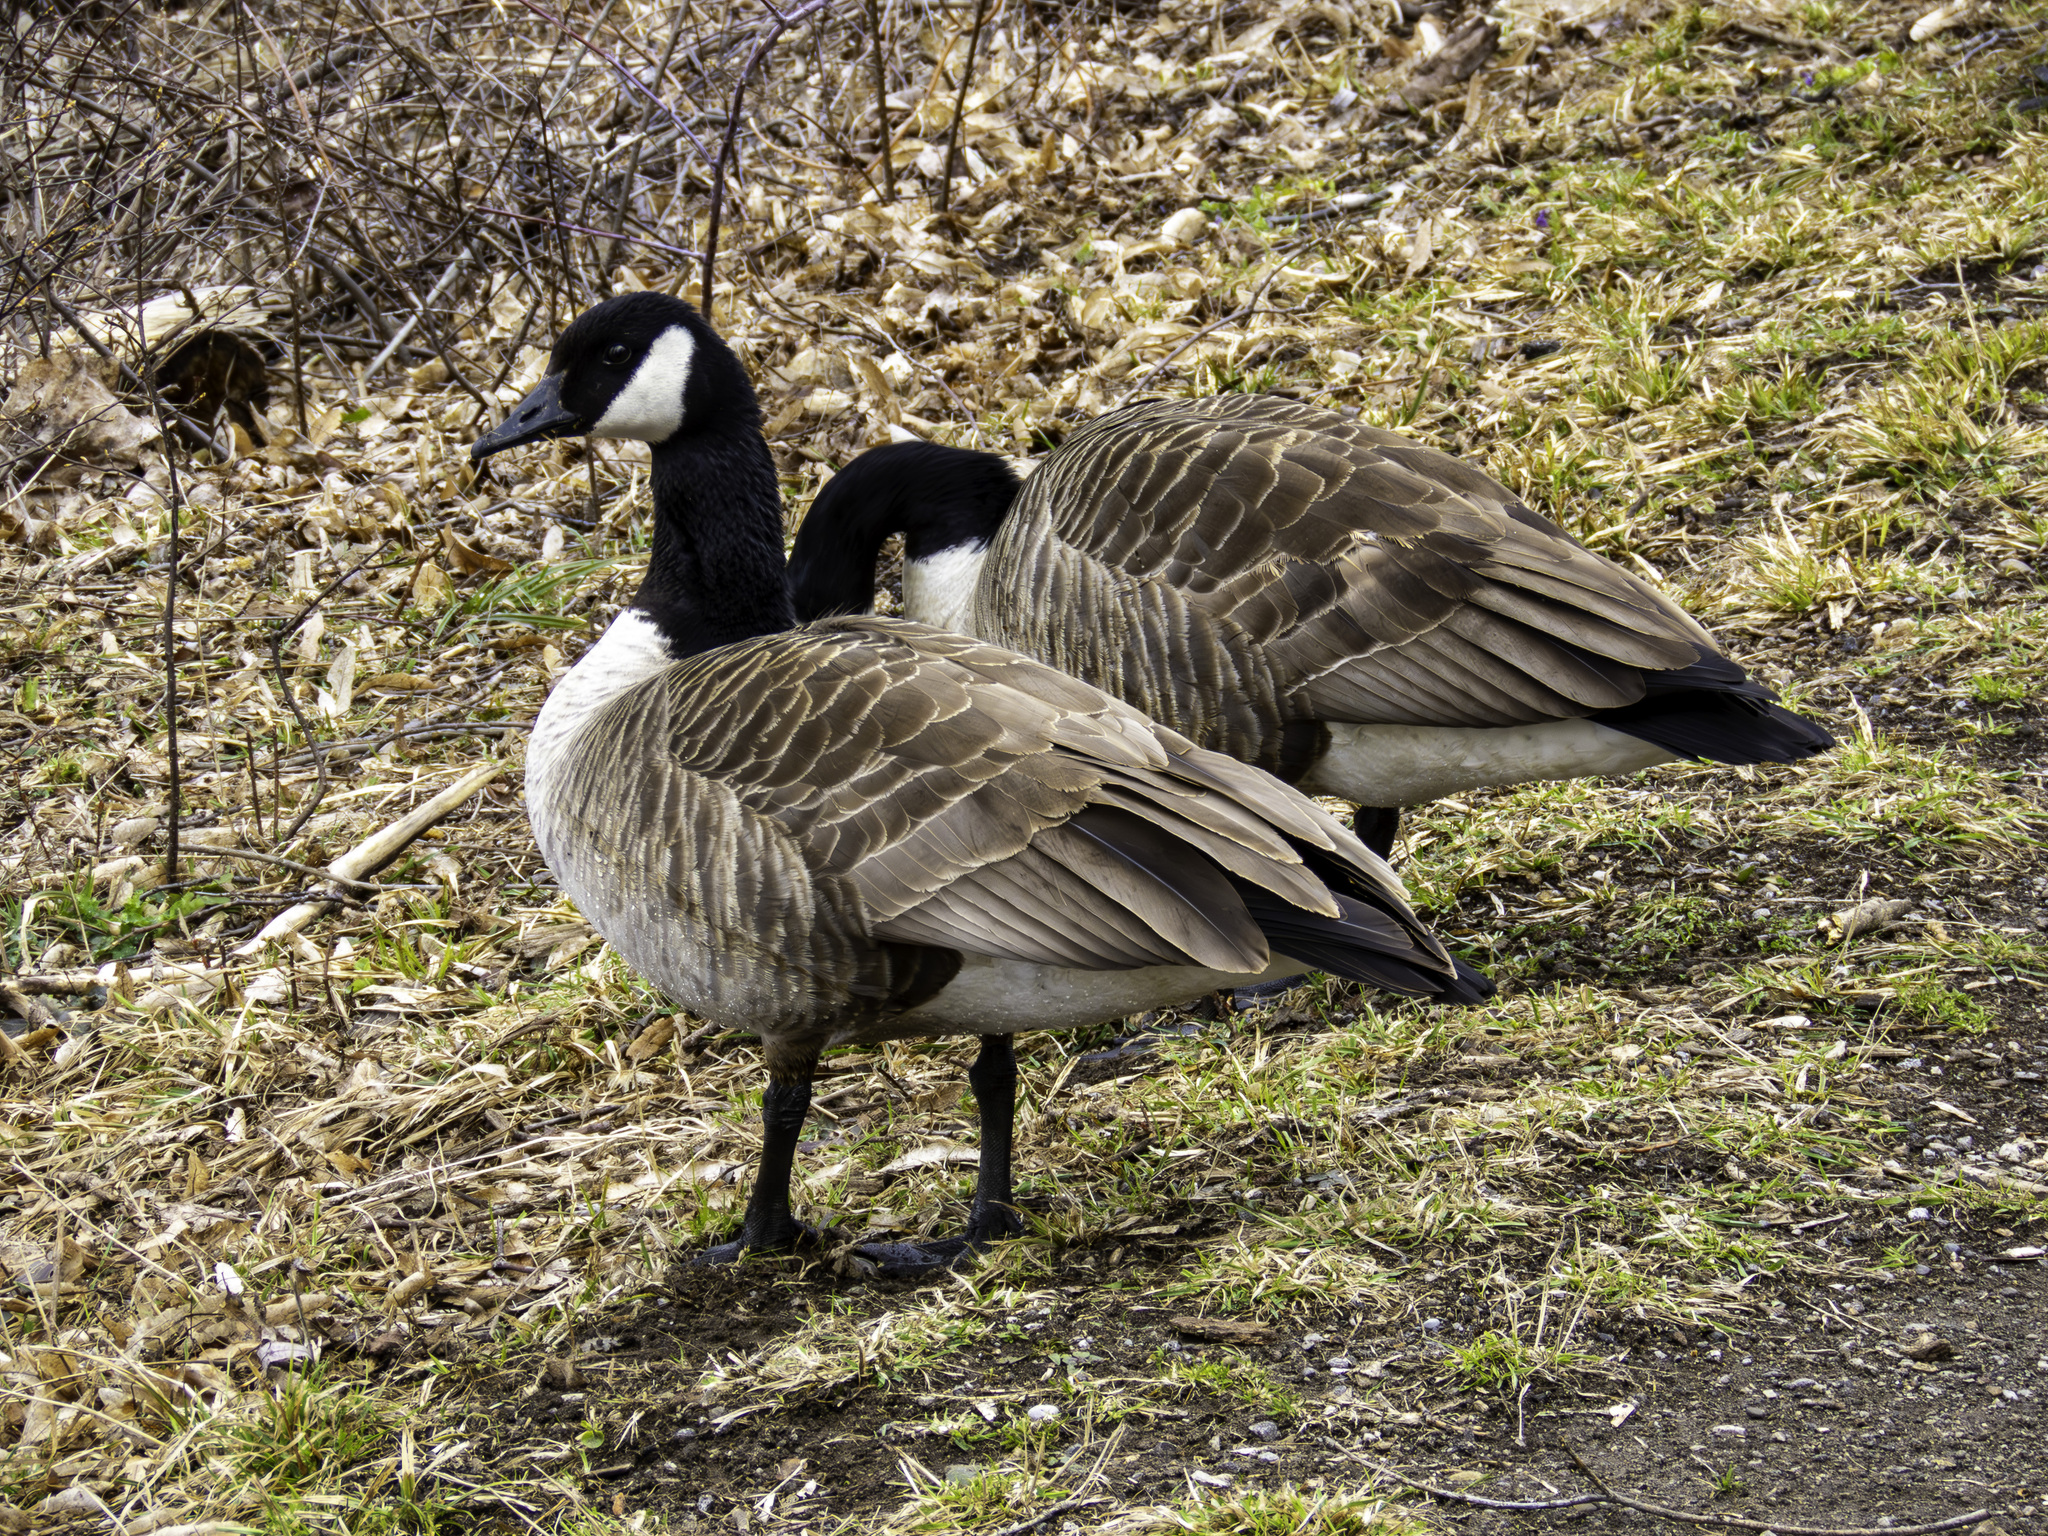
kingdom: Animalia
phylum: Chordata
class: Aves
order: Anseriformes
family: Anatidae
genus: Branta
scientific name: Branta canadensis
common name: Canada goose
